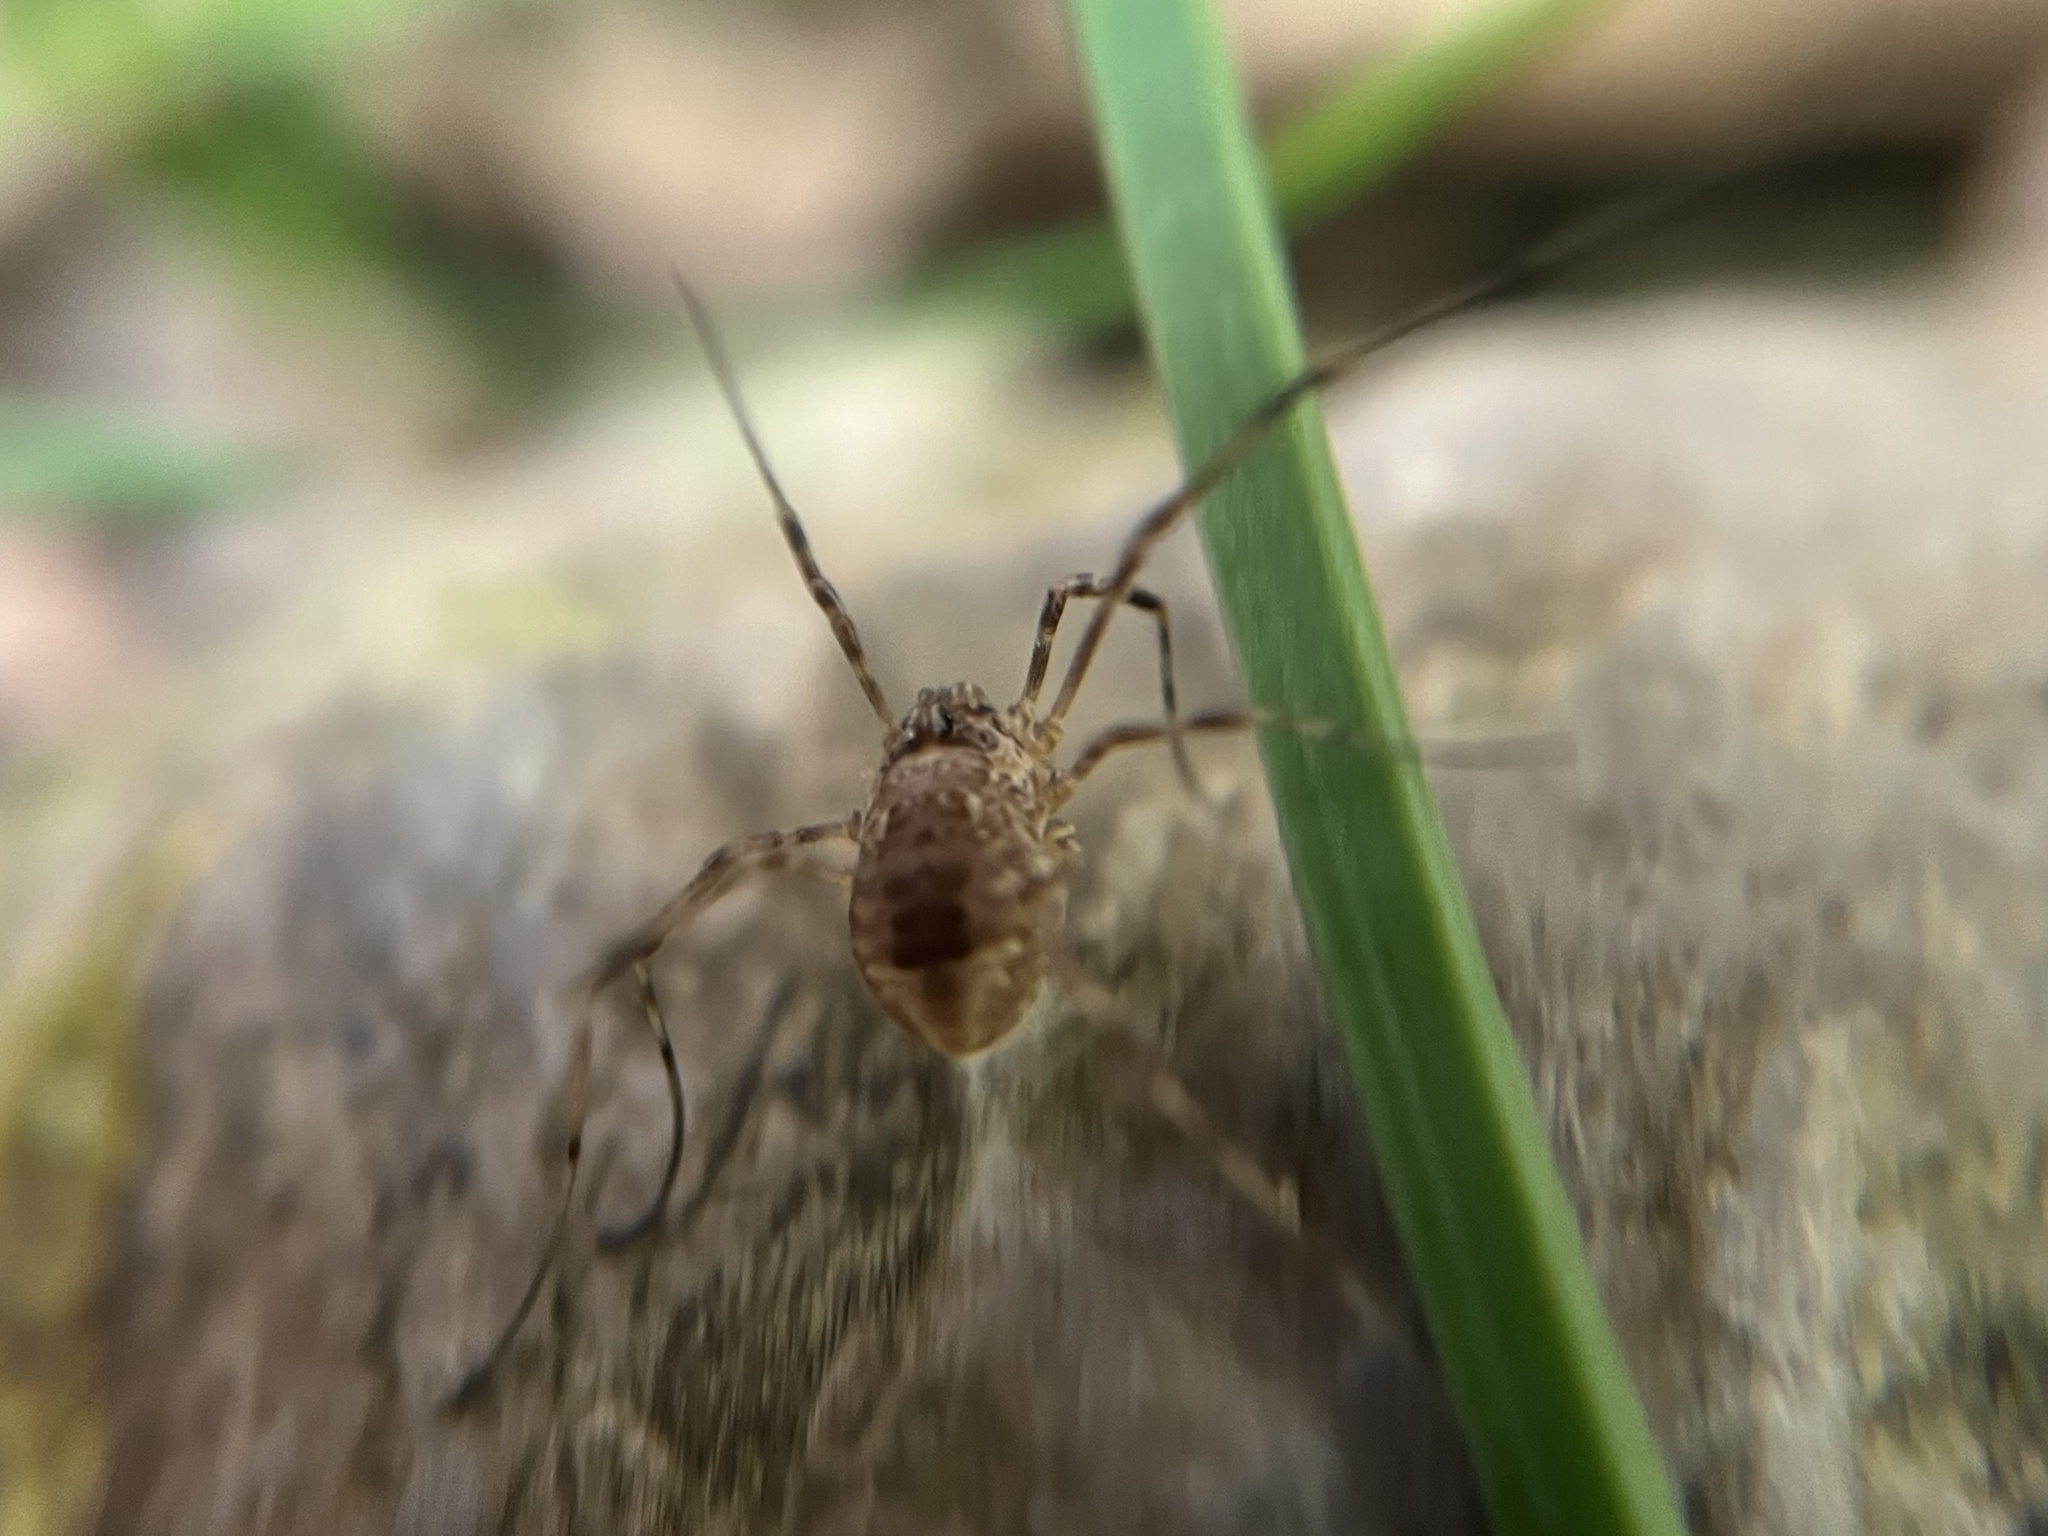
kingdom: Animalia
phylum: Arthropoda
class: Arachnida
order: Opiliones
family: Phalangiidae
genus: Rilaena
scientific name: Rilaena triangularis
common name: Spring harvestman
